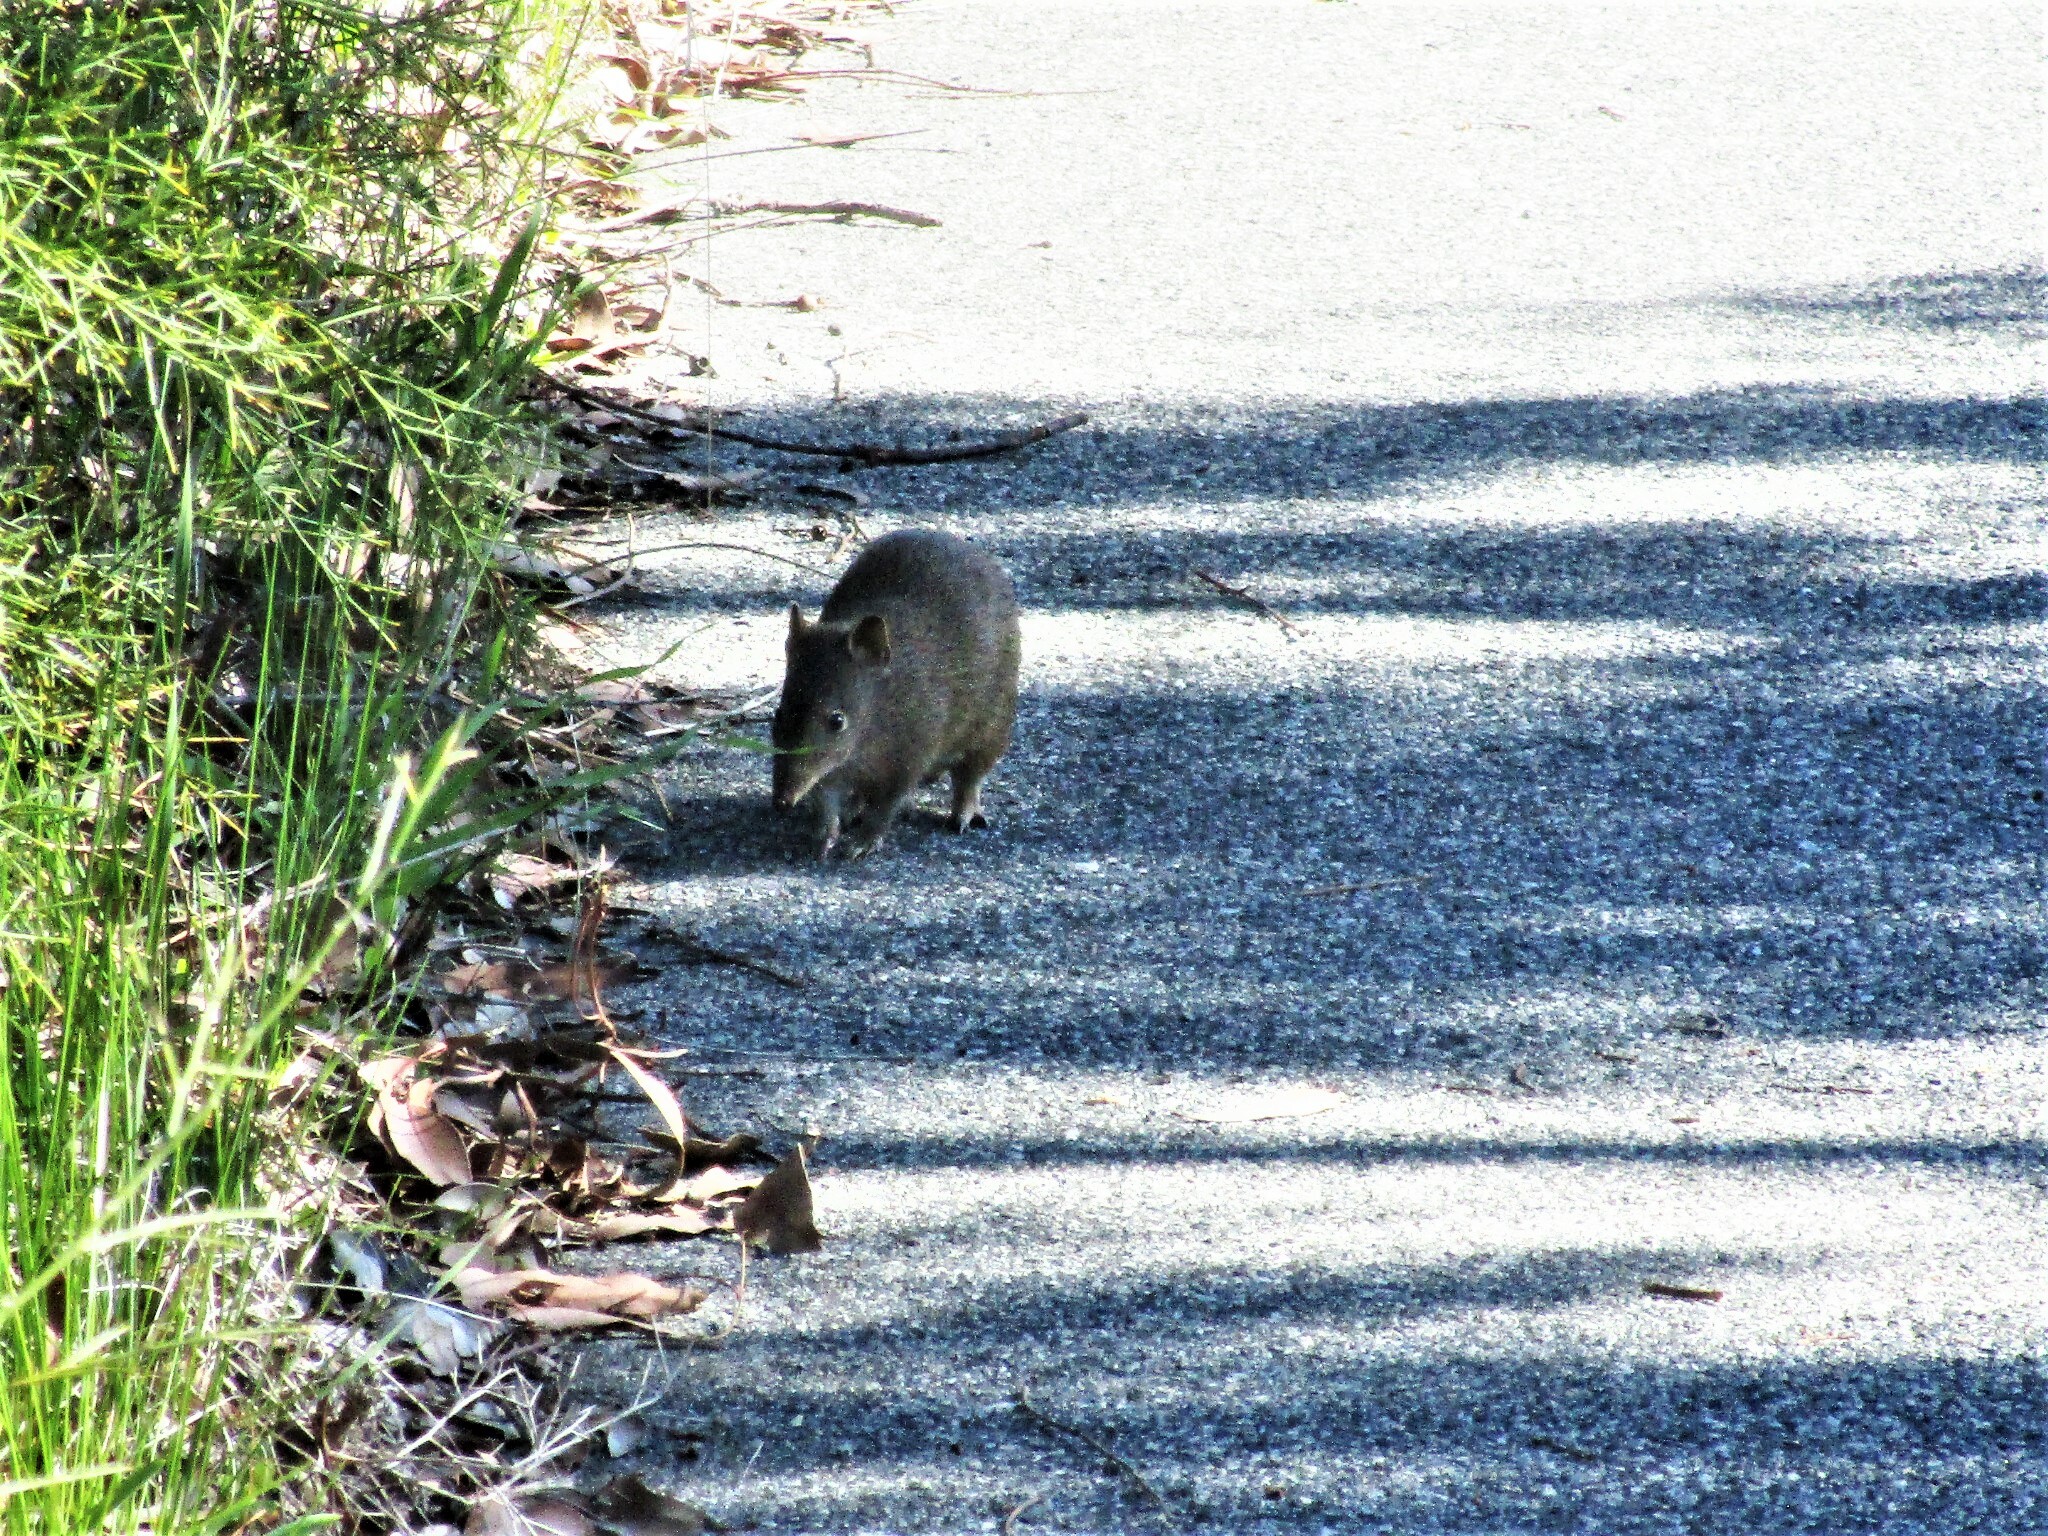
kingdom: Animalia
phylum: Chordata
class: Mammalia
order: Peramelemorphia
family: Peramelidae
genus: Isoodon
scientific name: Isoodon fusciventer
